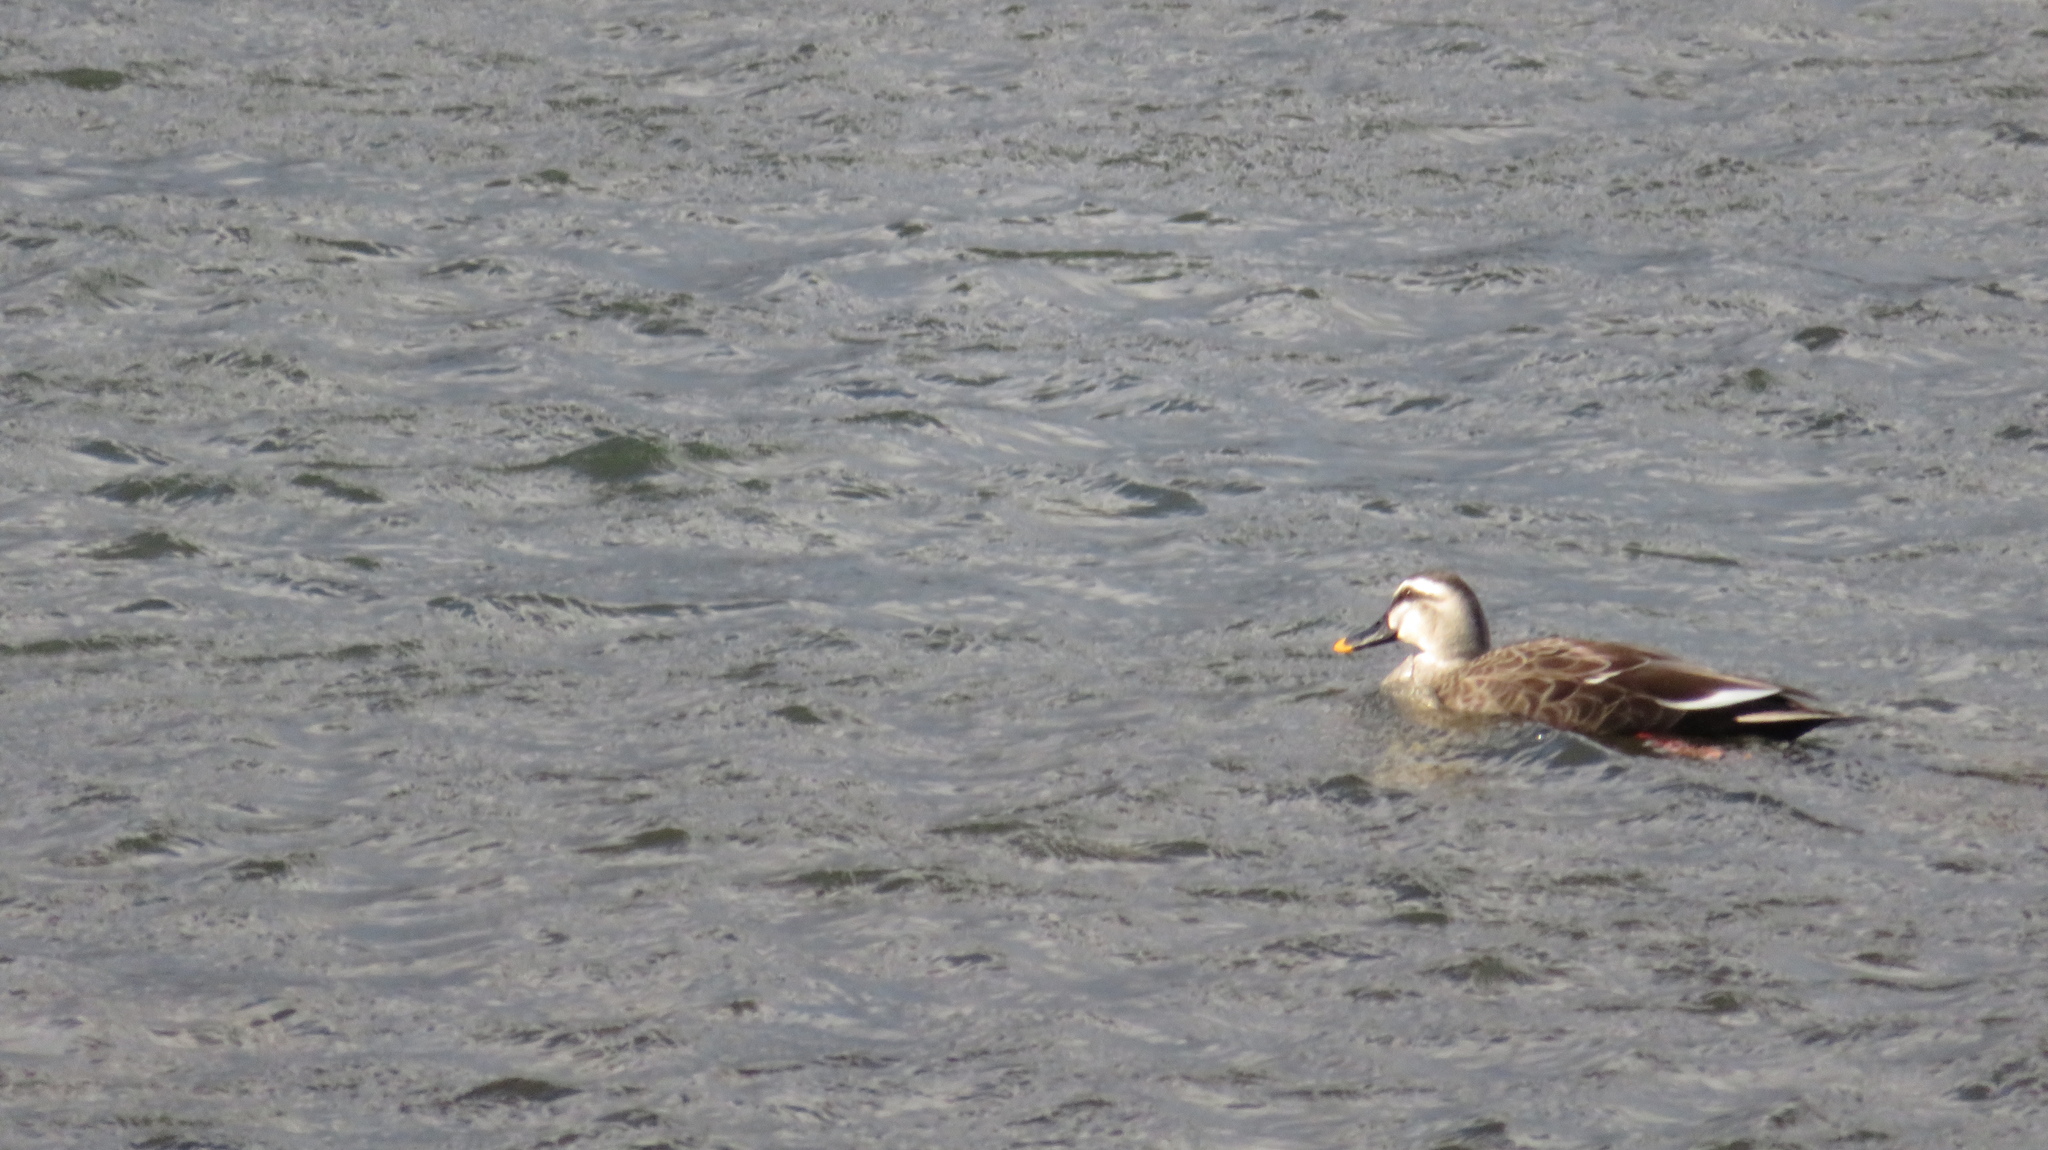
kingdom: Animalia
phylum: Chordata
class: Aves
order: Anseriformes
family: Anatidae
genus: Anas
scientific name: Anas zonorhyncha
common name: Eastern spot-billed duck
